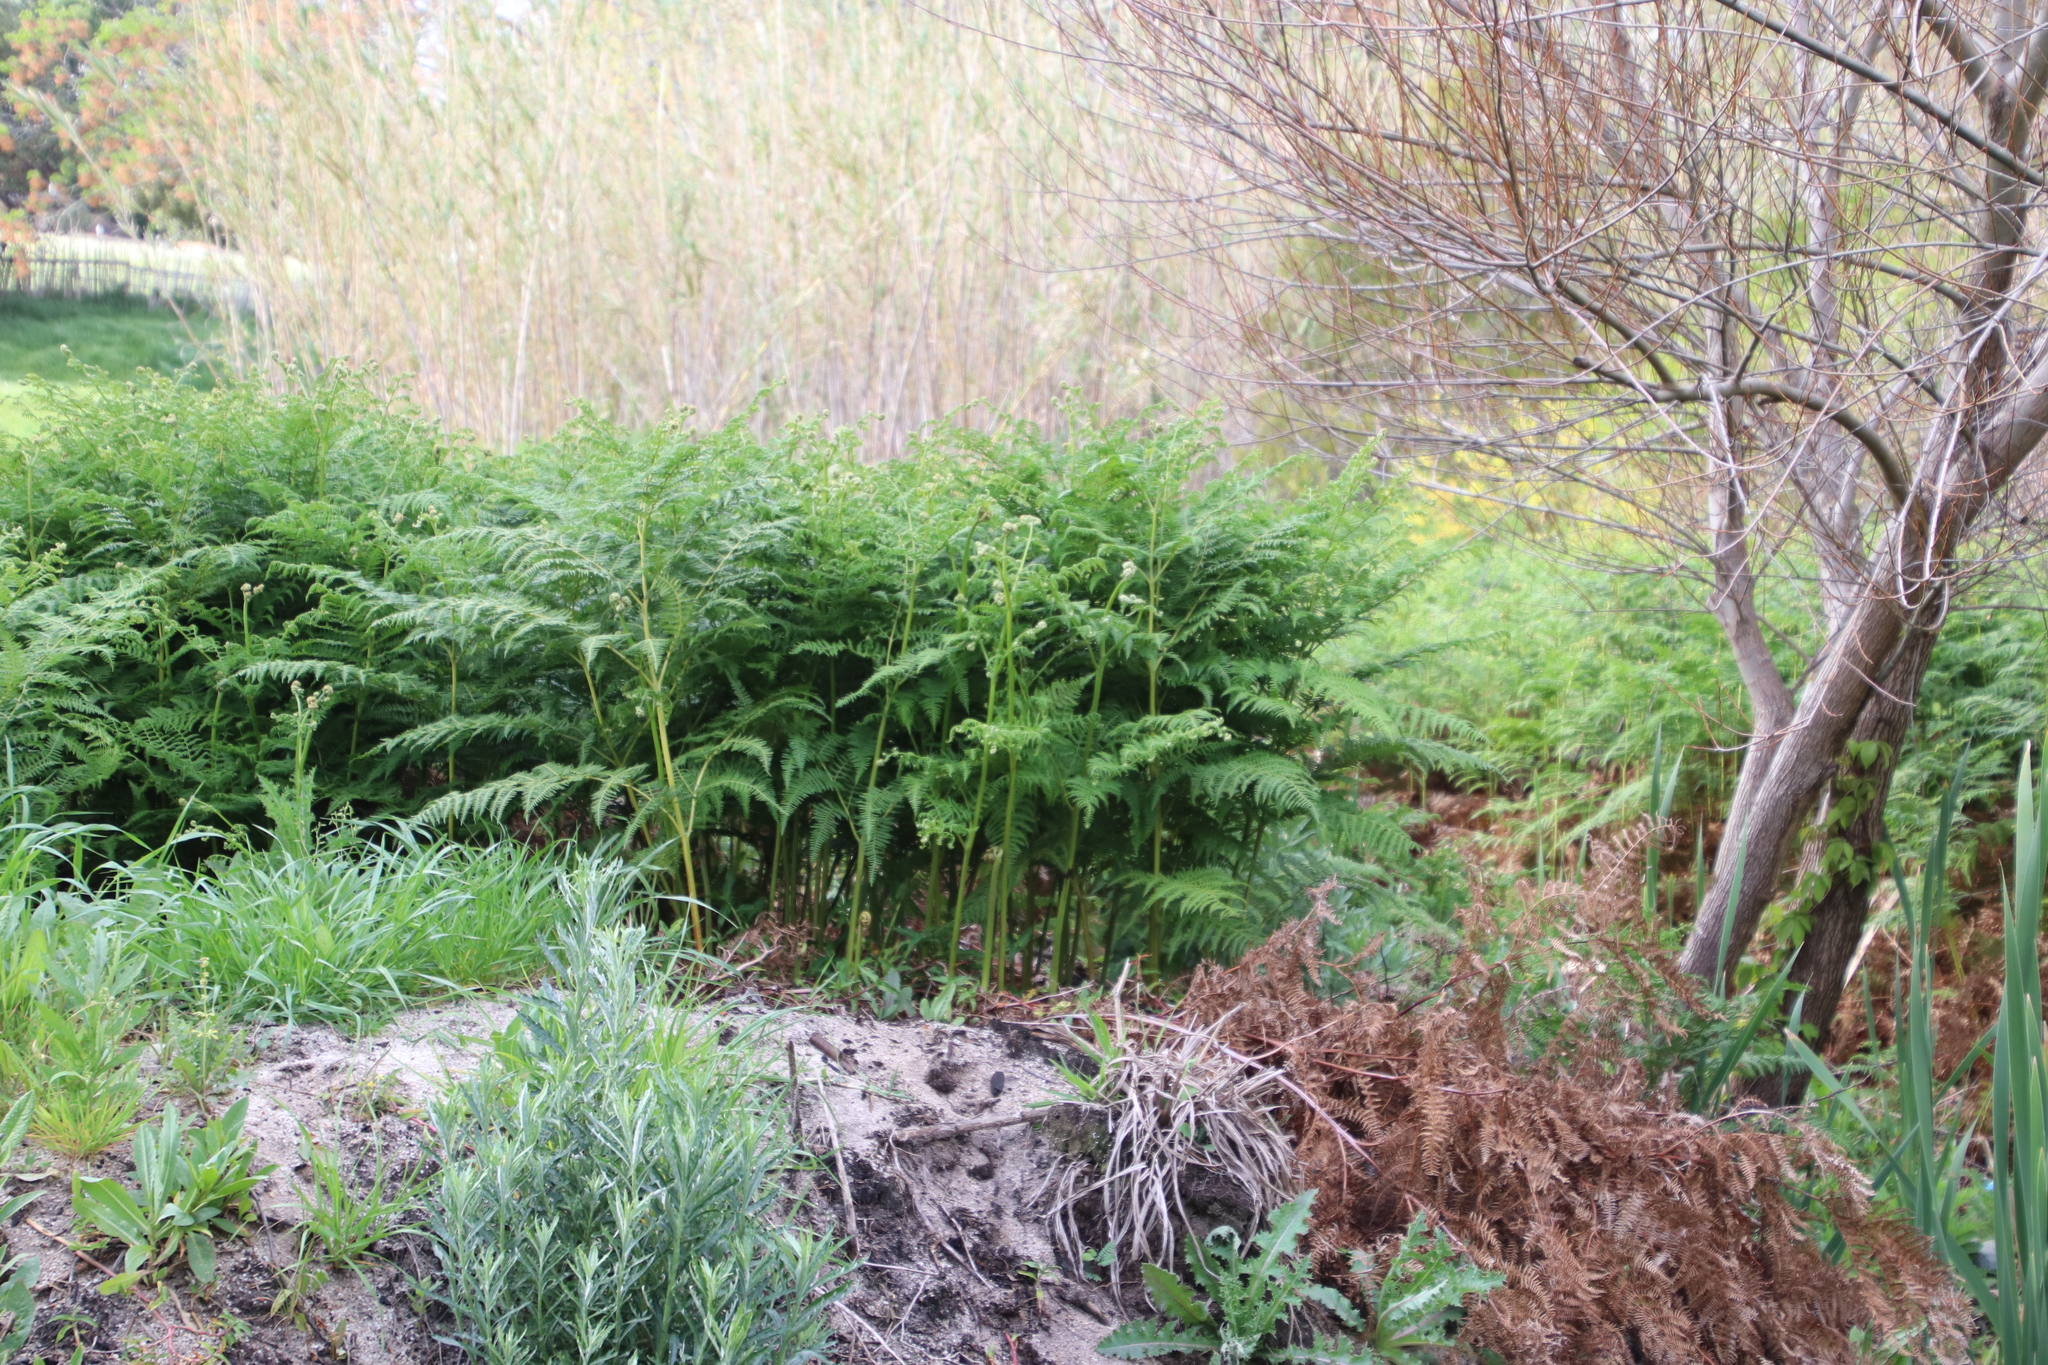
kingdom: Plantae
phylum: Tracheophyta
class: Polypodiopsida
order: Polypodiales
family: Dennstaedtiaceae
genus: Pteridium
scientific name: Pteridium aquilinum
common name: Bracken
